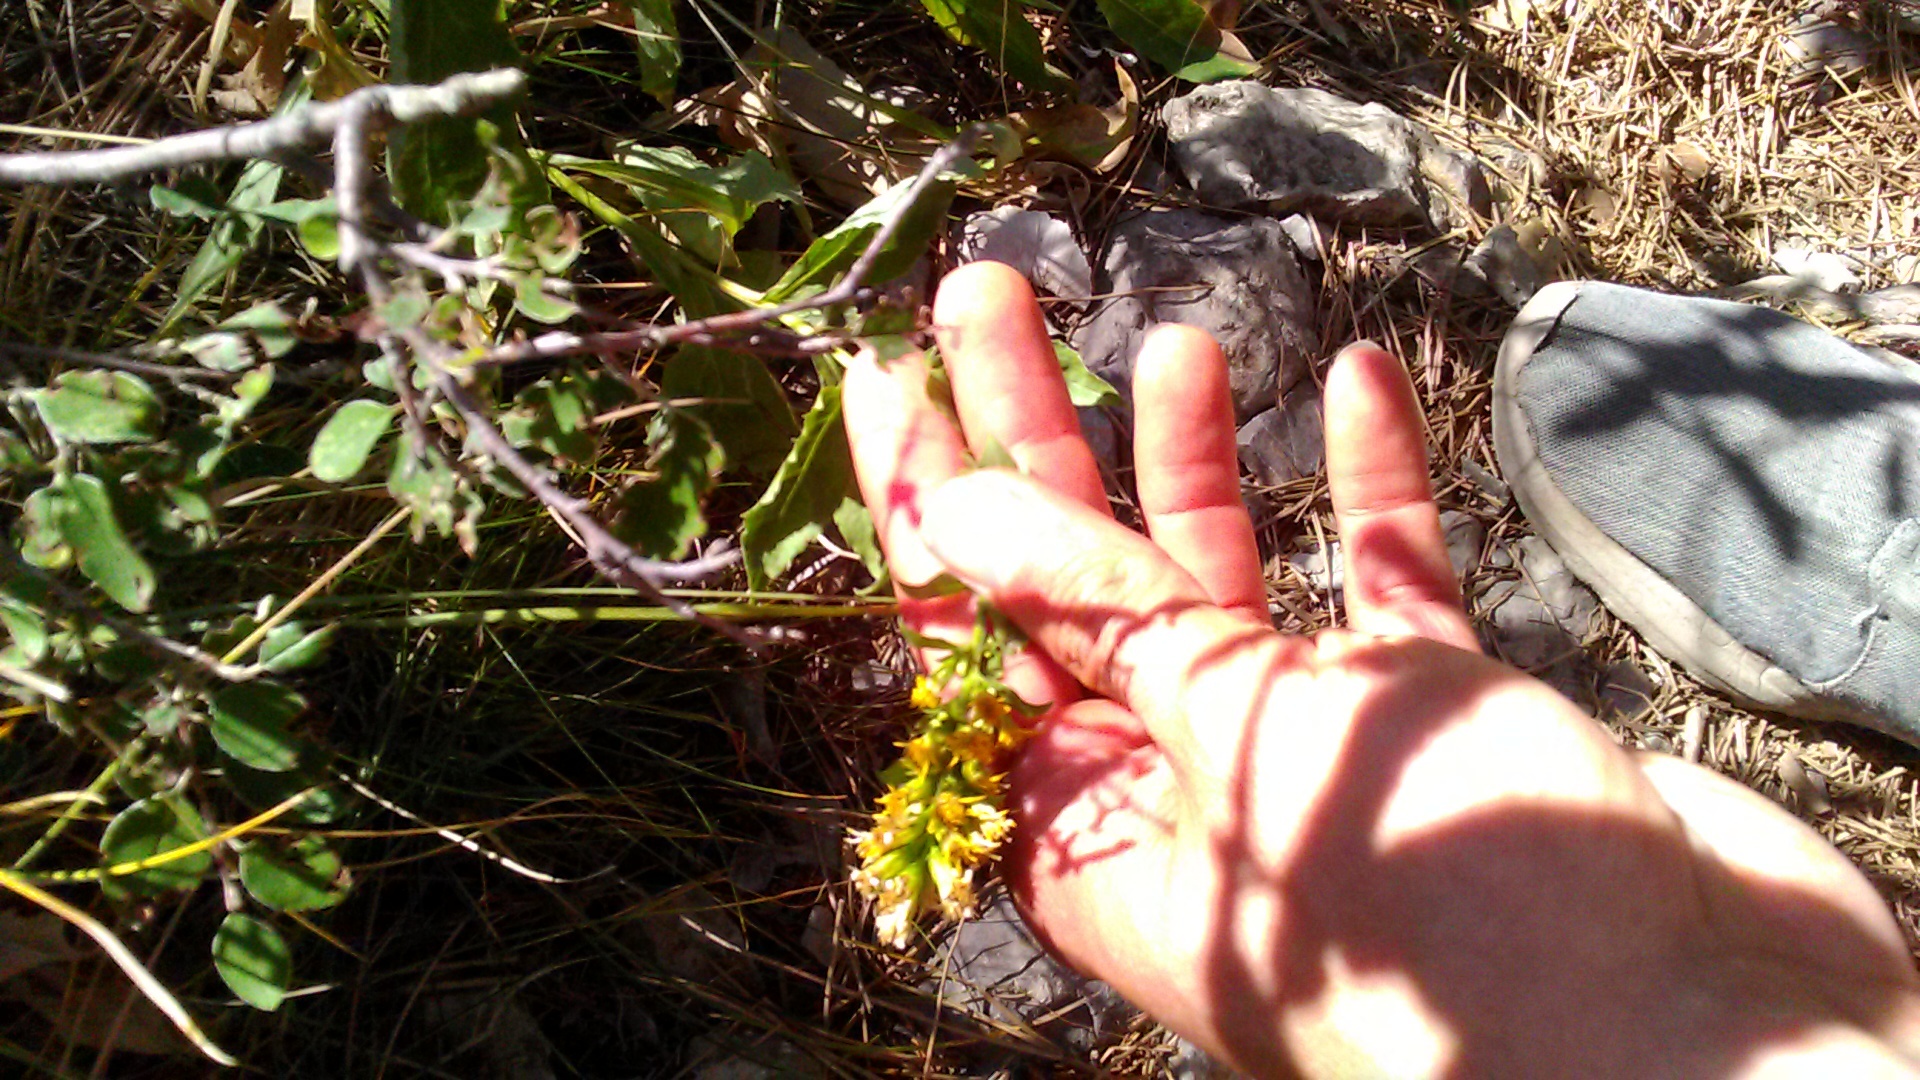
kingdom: Plantae
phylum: Tracheophyta
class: Magnoliopsida
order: Asterales
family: Asteraceae
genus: Solidago
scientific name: Solidago virgaurea
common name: Goldenrod
